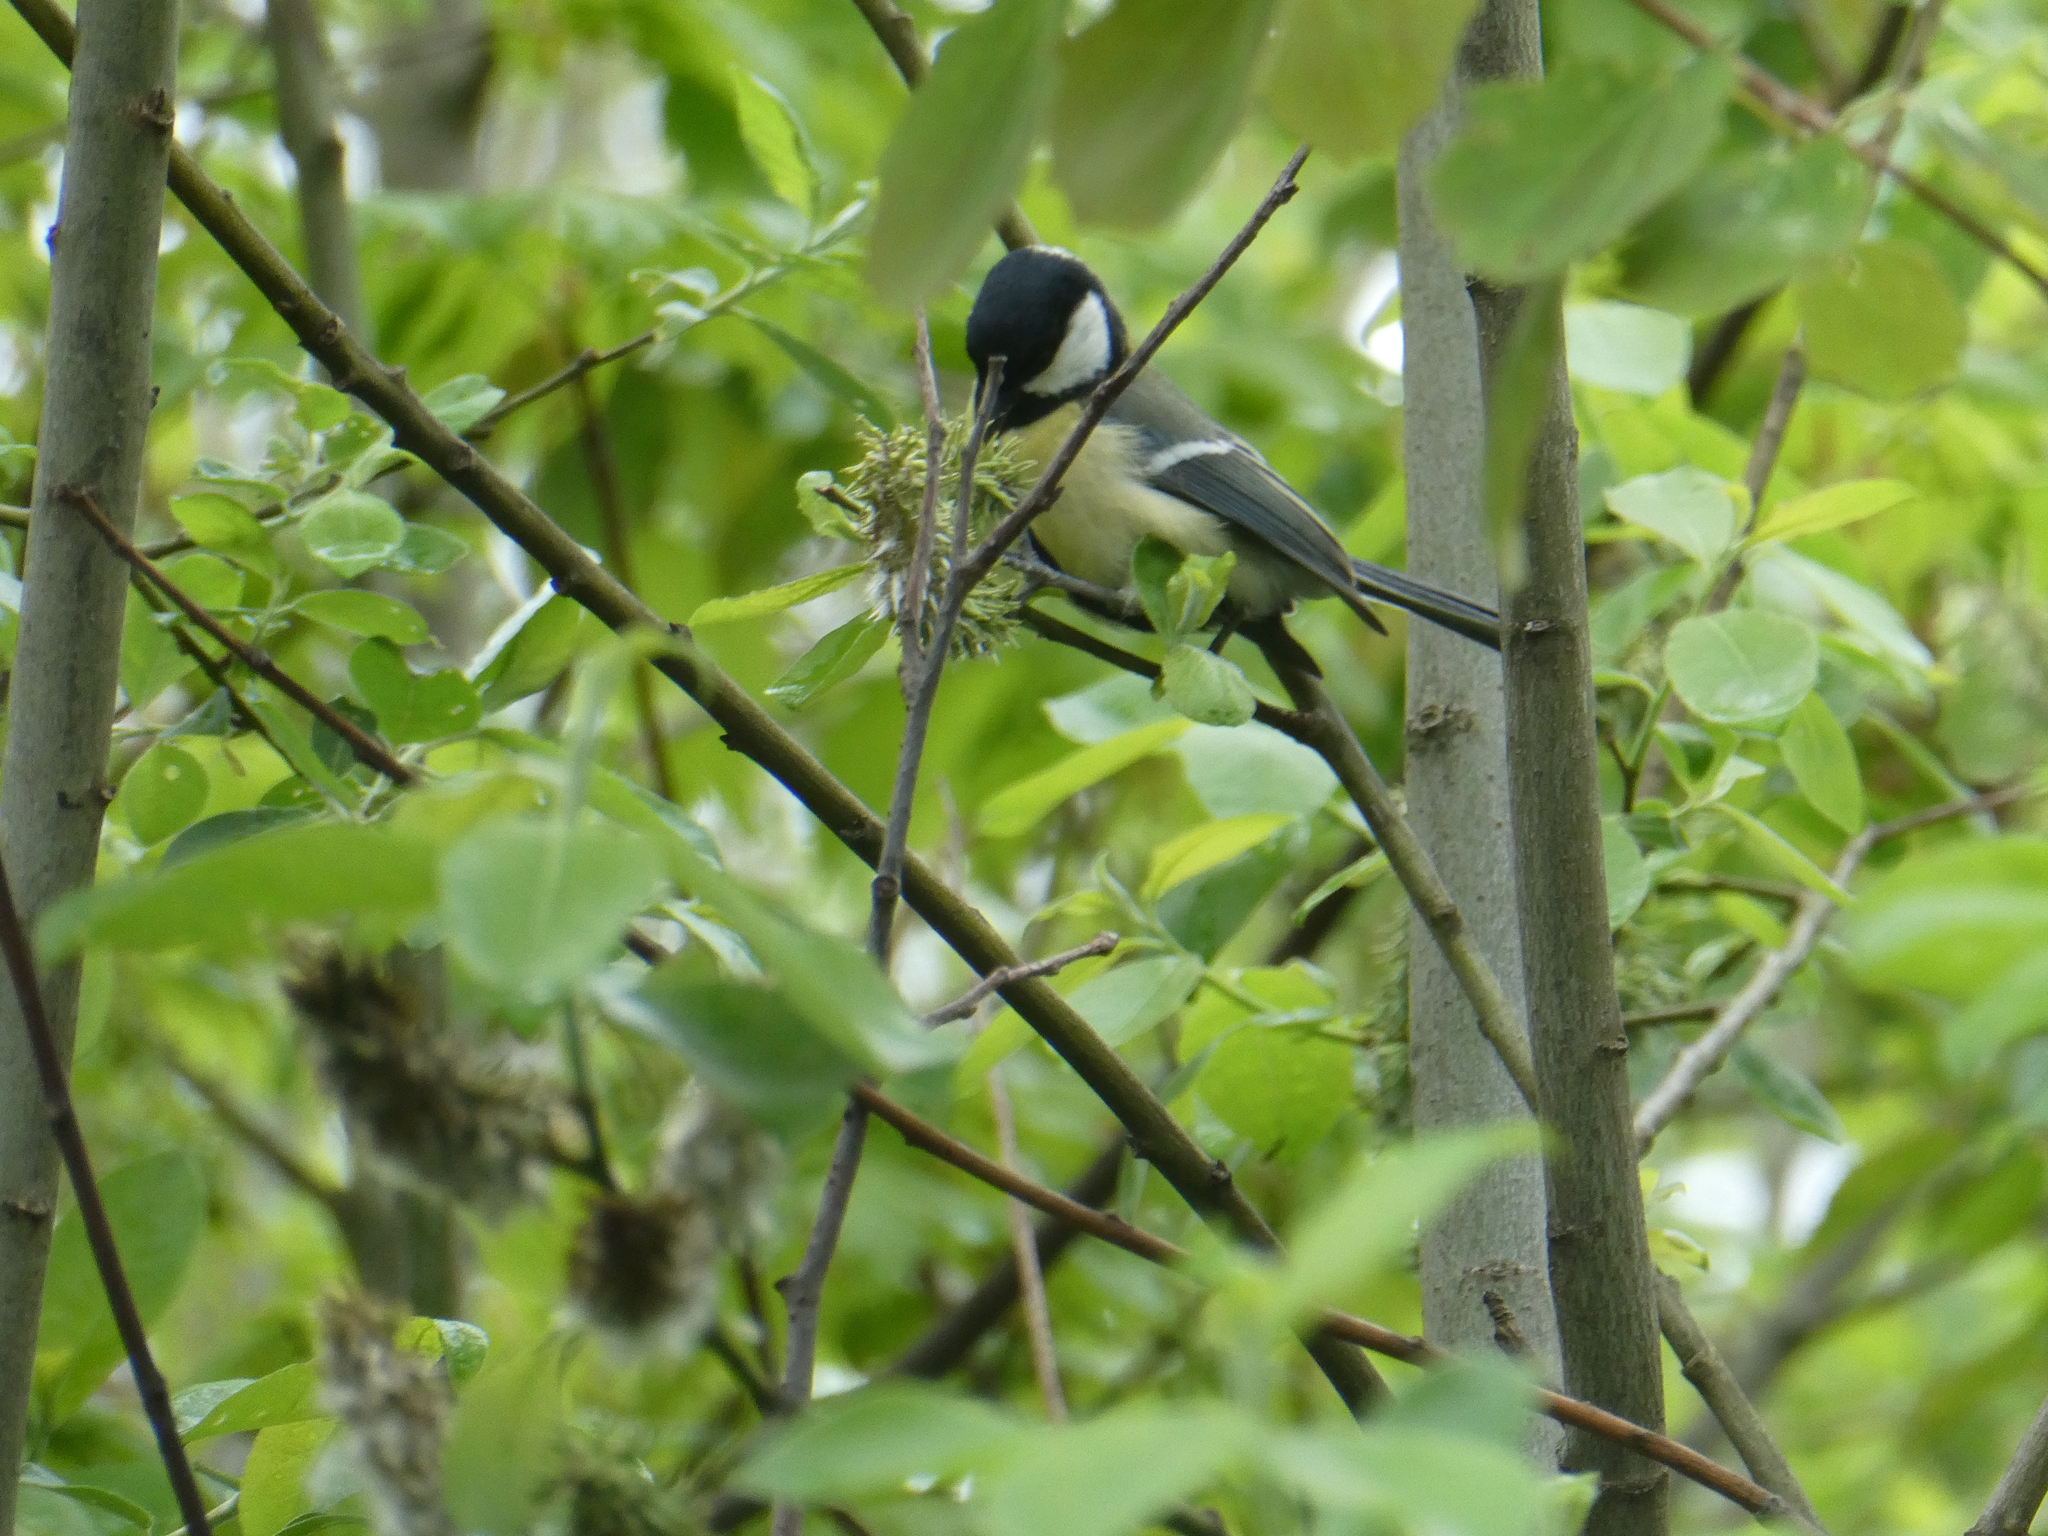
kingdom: Animalia
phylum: Chordata
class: Aves
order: Passeriformes
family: Paridae
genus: Parus
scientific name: Parus major
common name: Great tit
